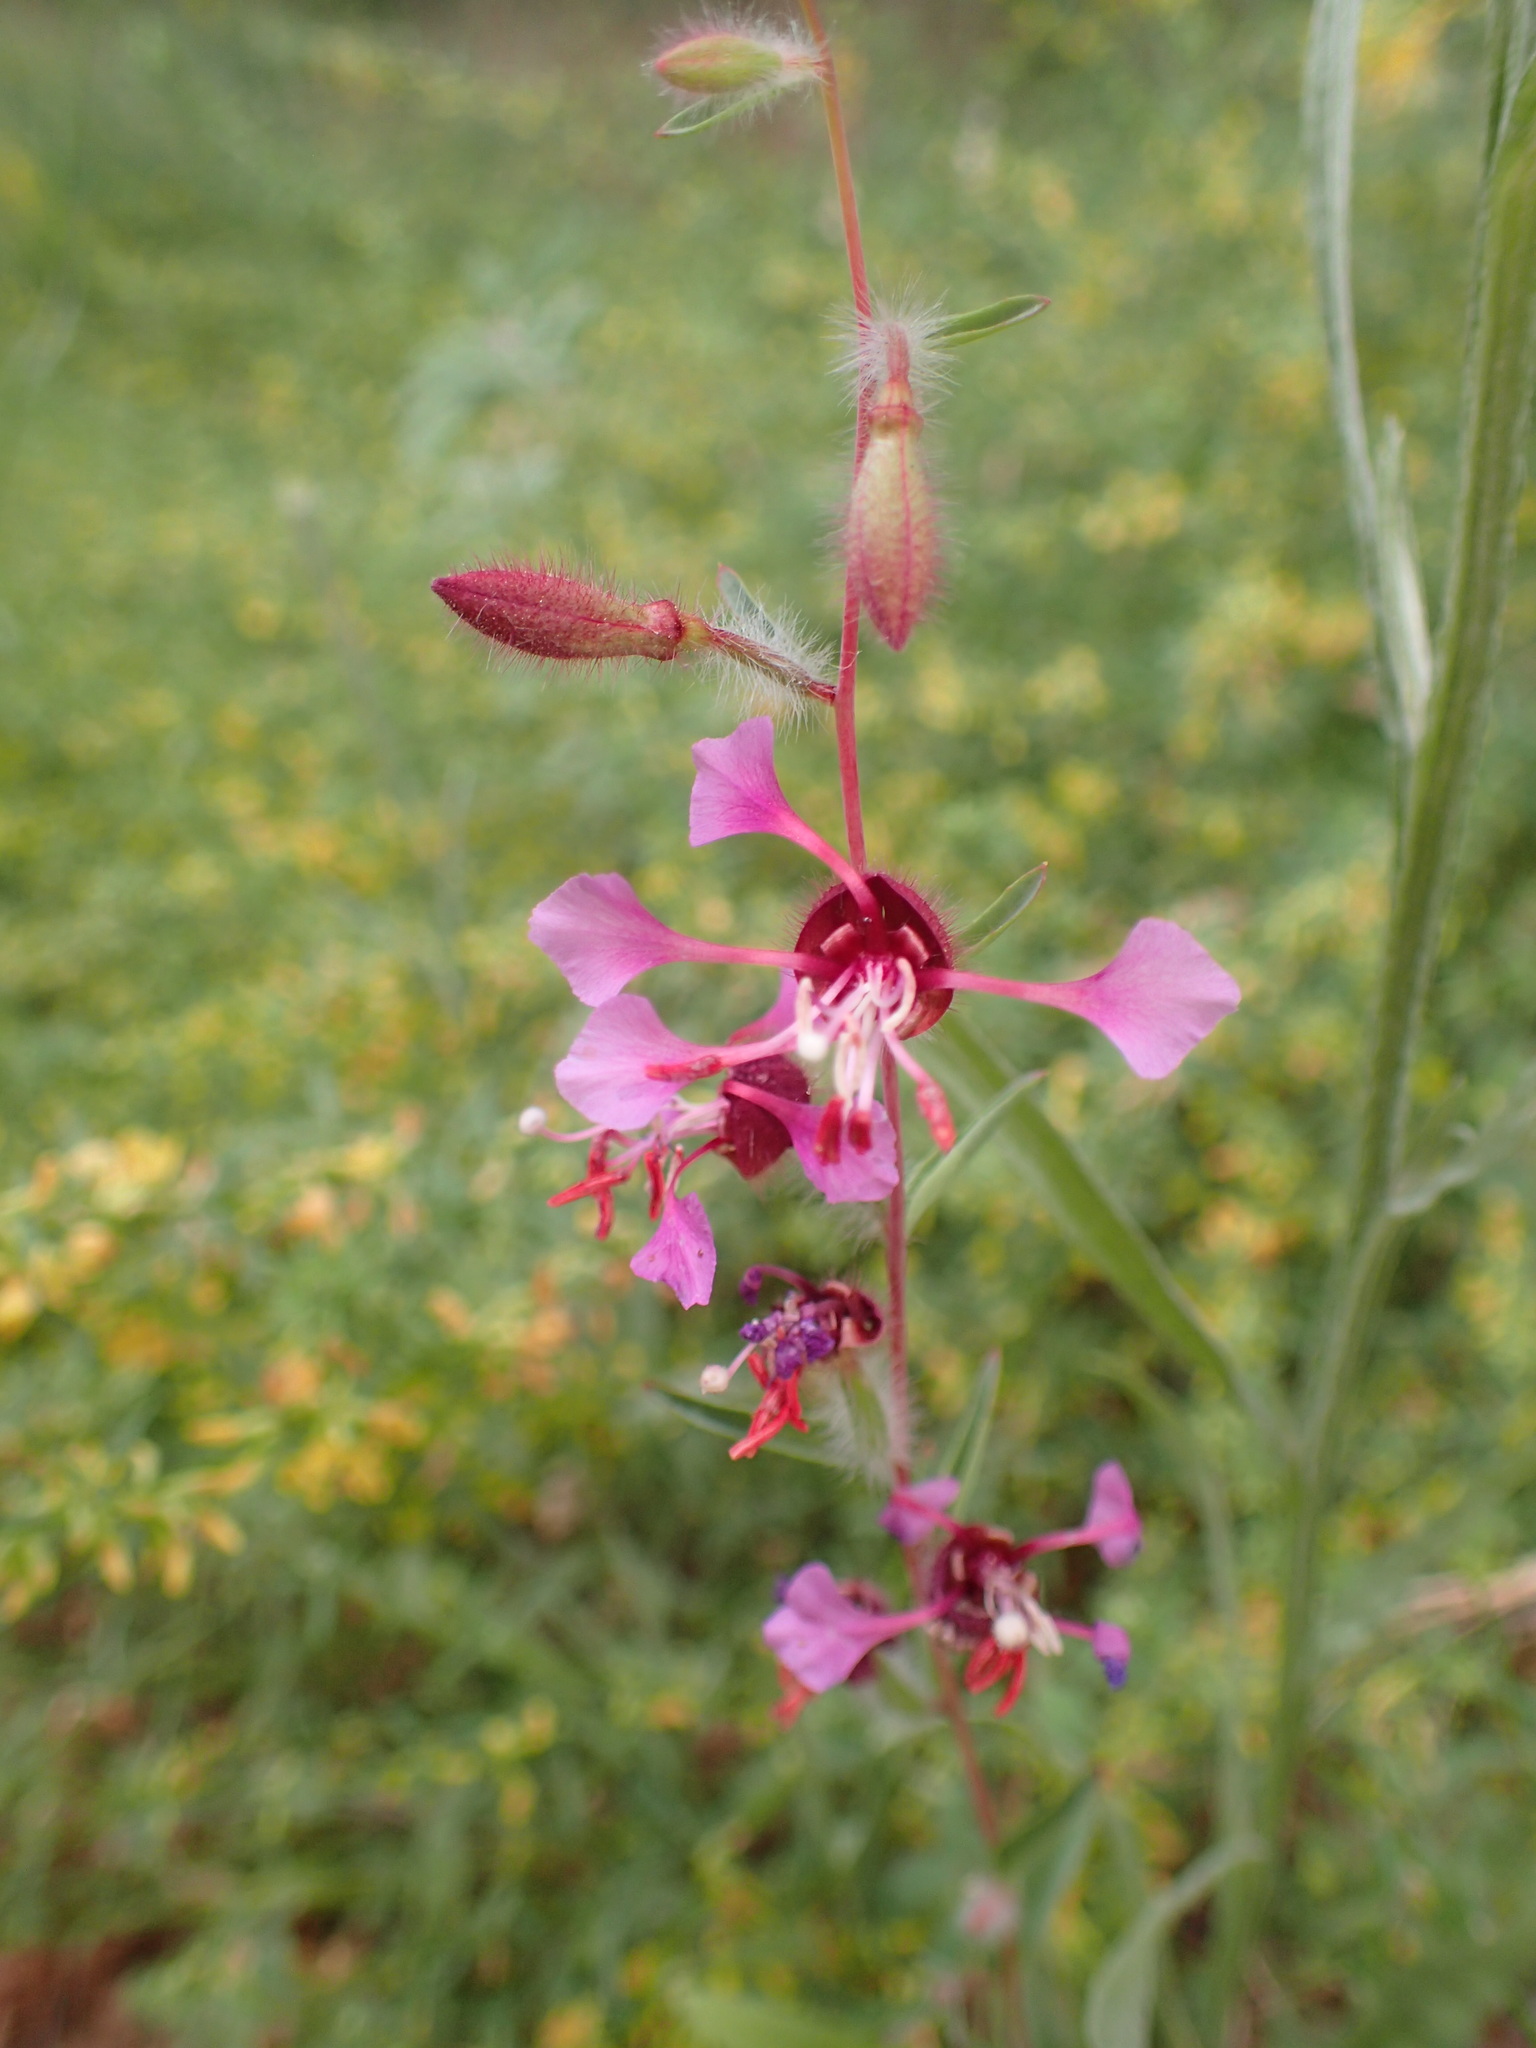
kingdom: Plantae
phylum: Tracheophyta
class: Magnoliopsida
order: Myrtales
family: Onagraceae
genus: Clarkia
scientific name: Clarkia unguiculata
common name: Clarkia
